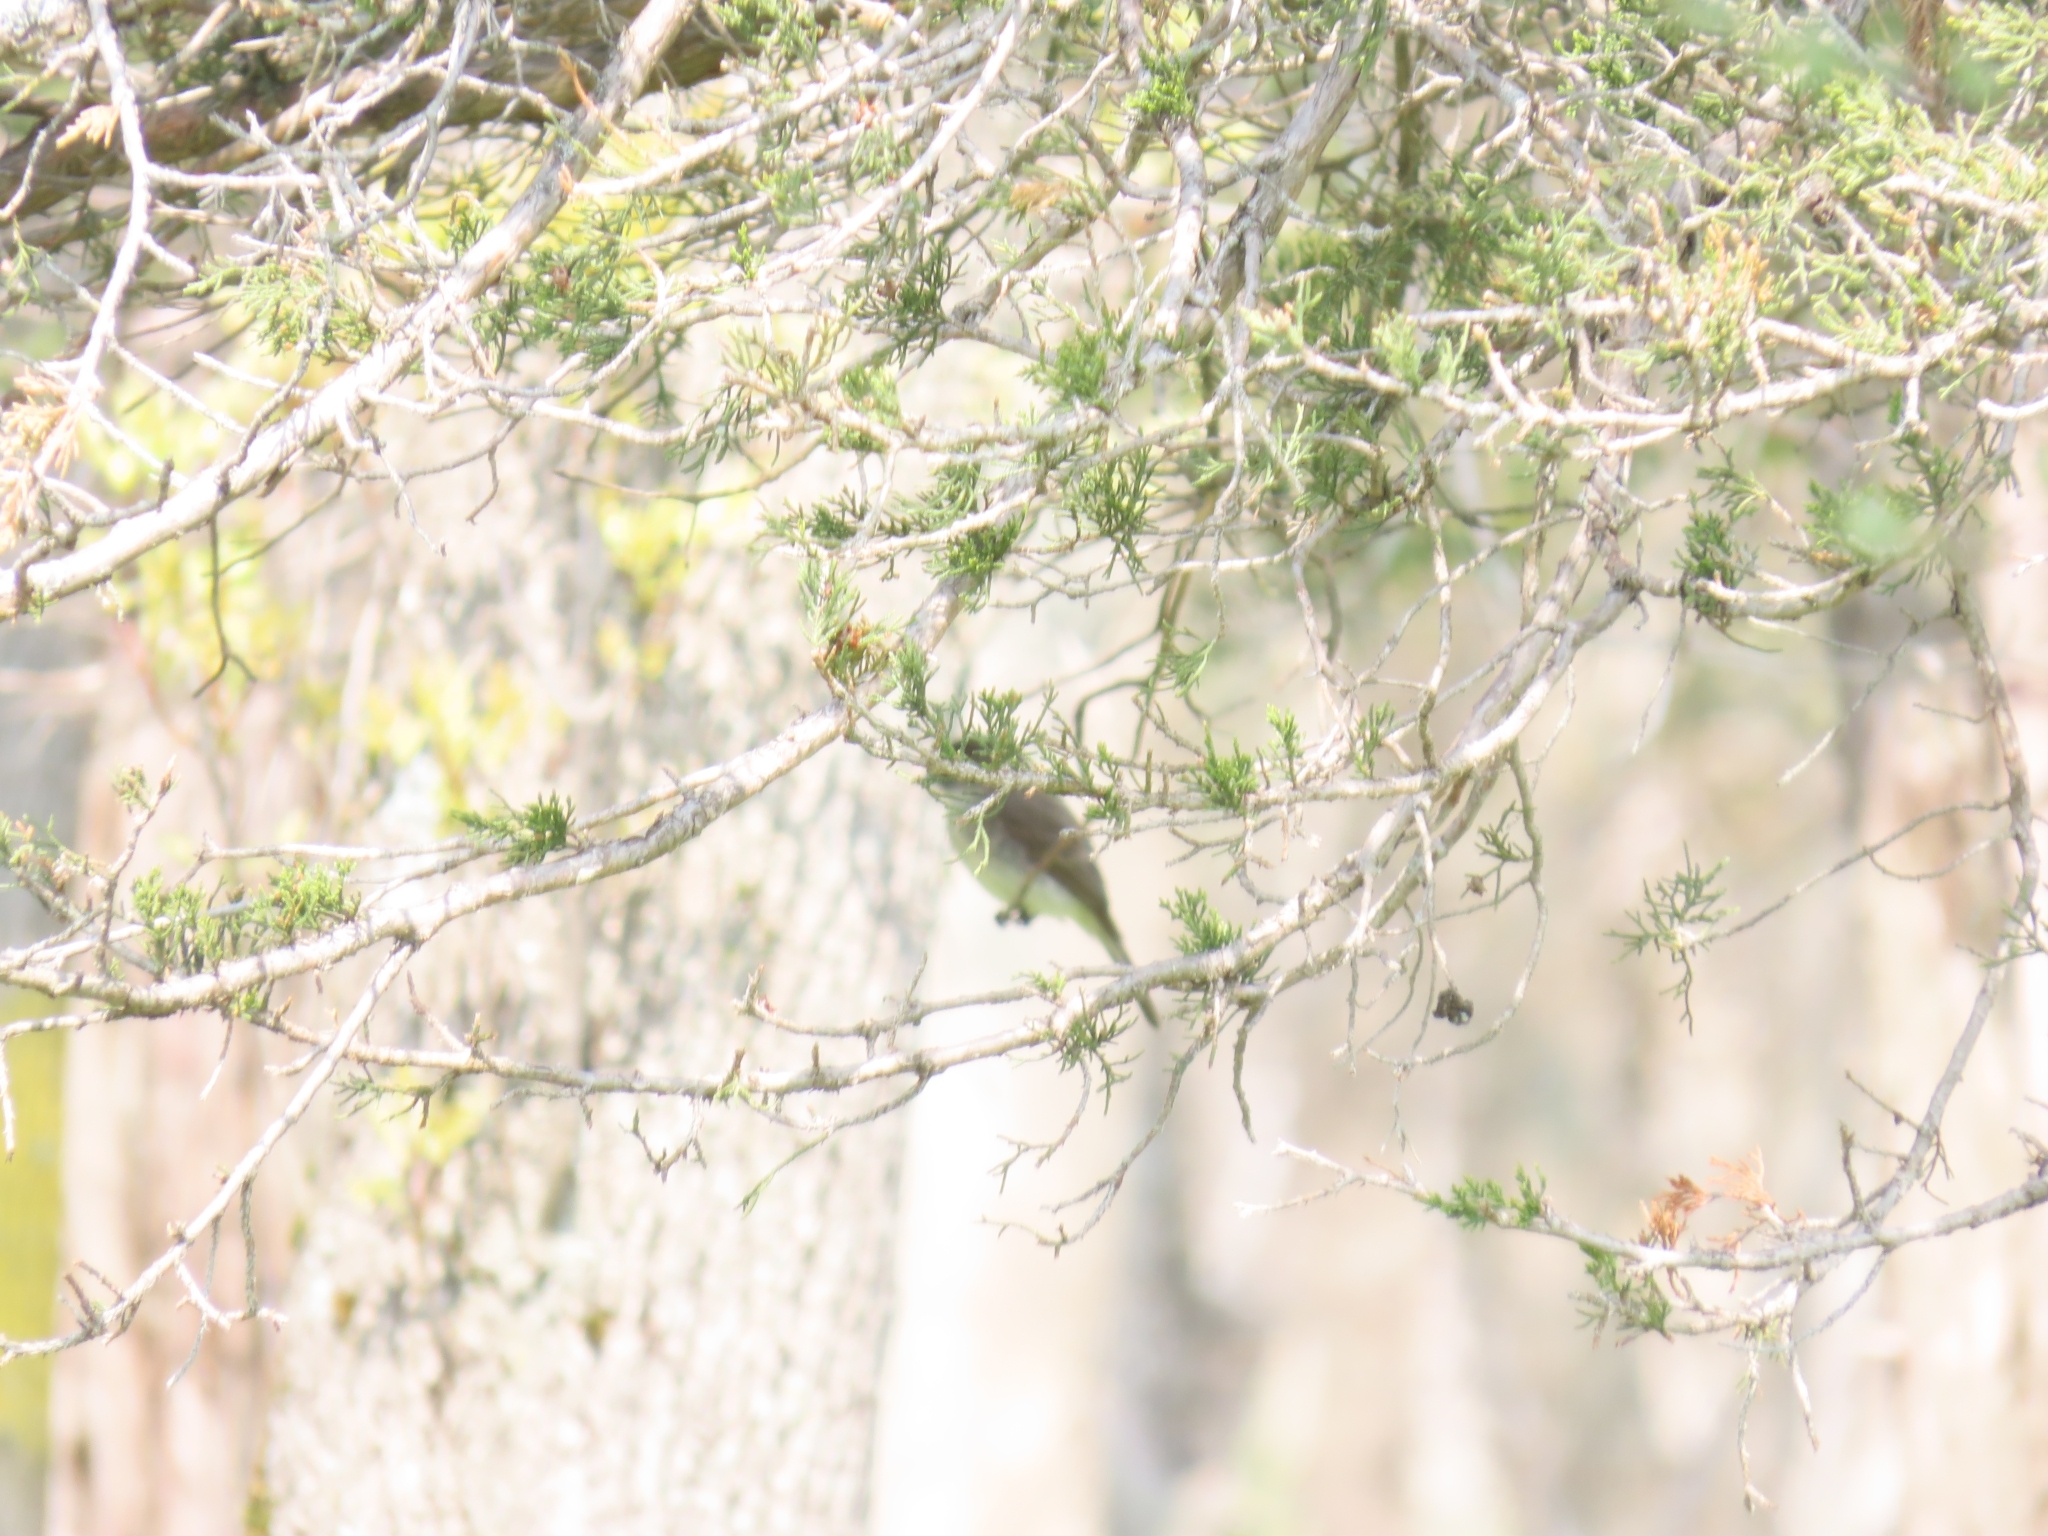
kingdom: Animalia
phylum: Chordata
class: Aves
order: Passeriformes
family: Tyrannidae
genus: Sayornis
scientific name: Sayornis phoebe
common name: Eastern phoebe
